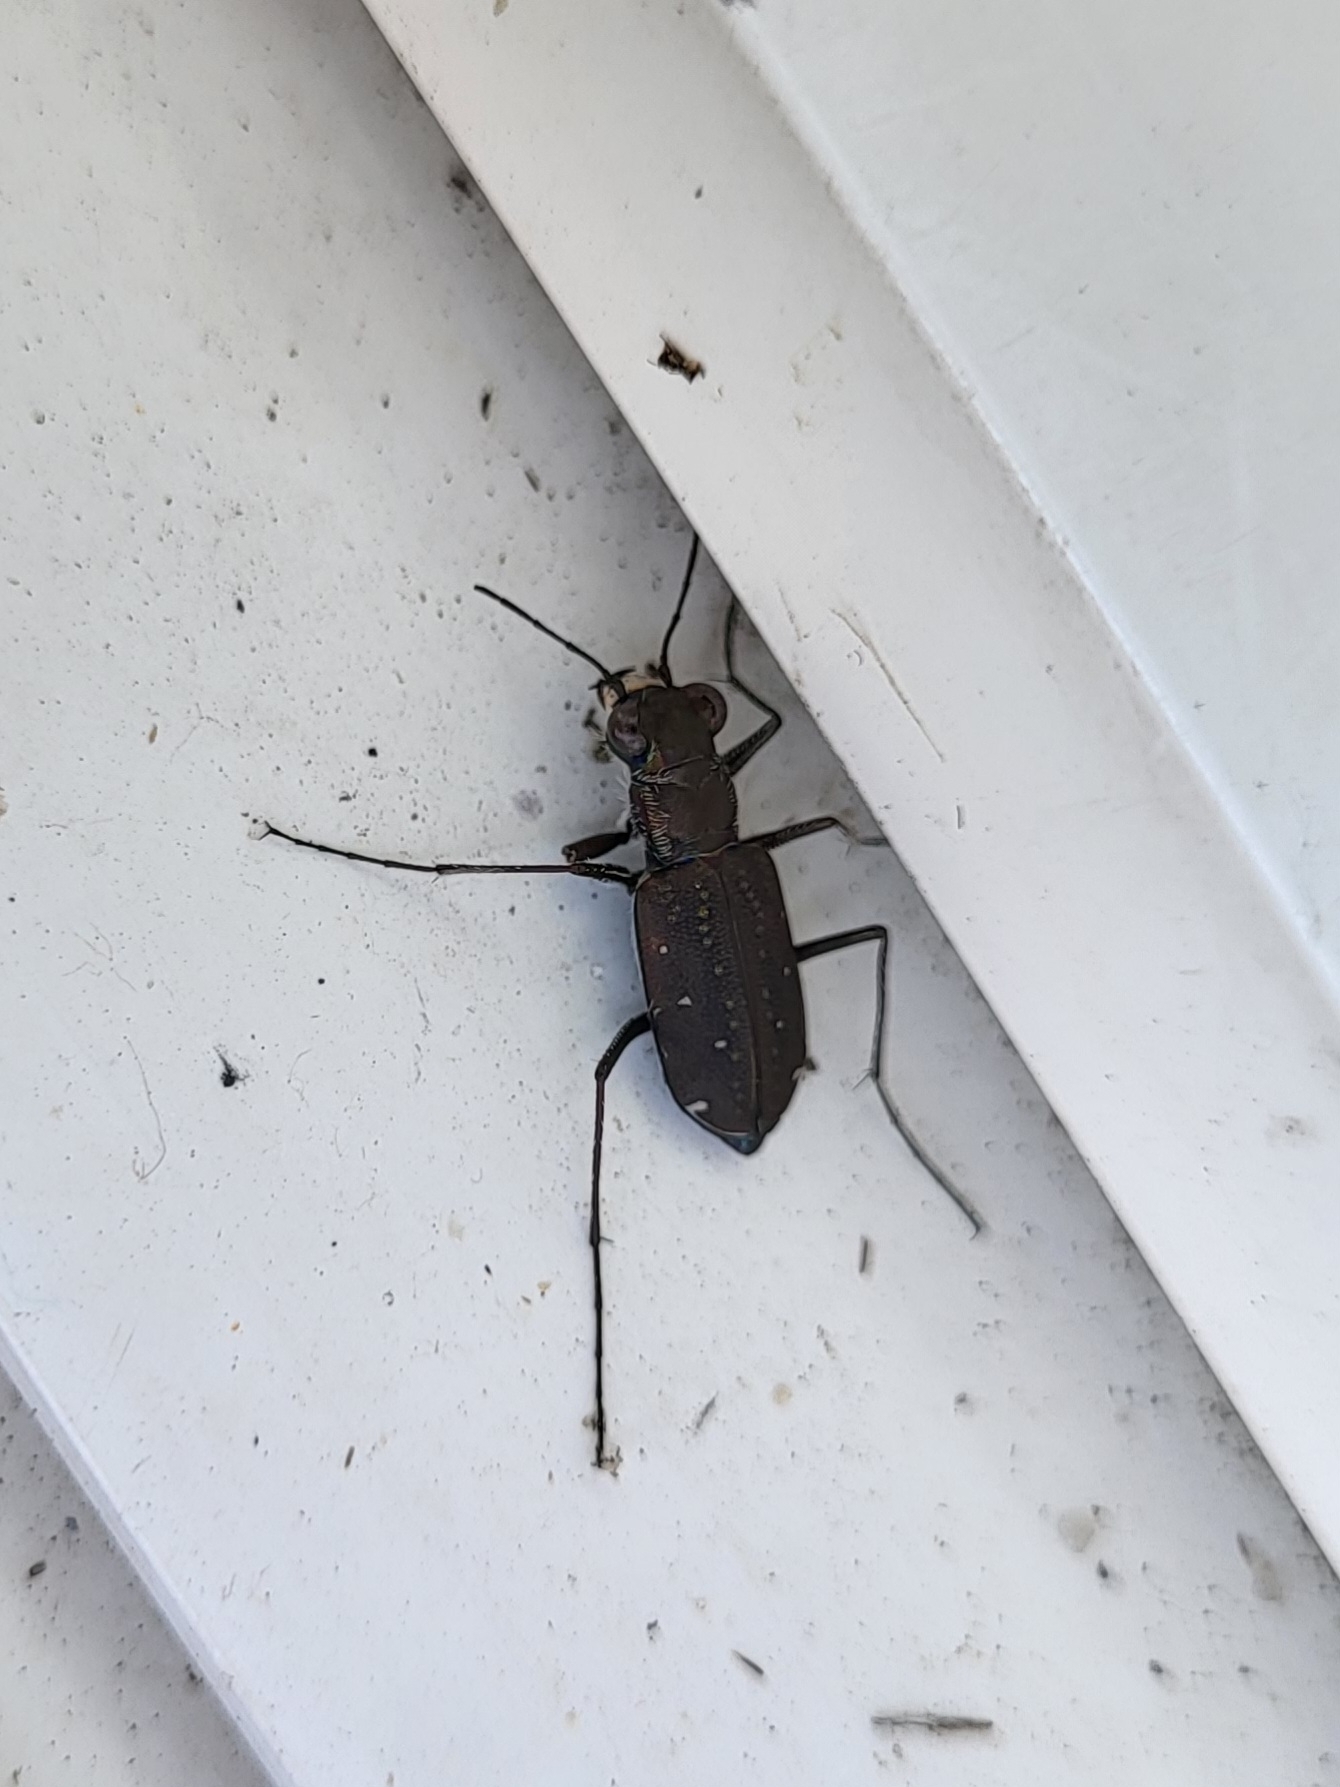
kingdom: Animalia
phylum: Arthropoda
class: Insecta
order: Coleoptera
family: Carabidae
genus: Cicindela
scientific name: Cicindela punctulata
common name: Punctured tiger beetle
